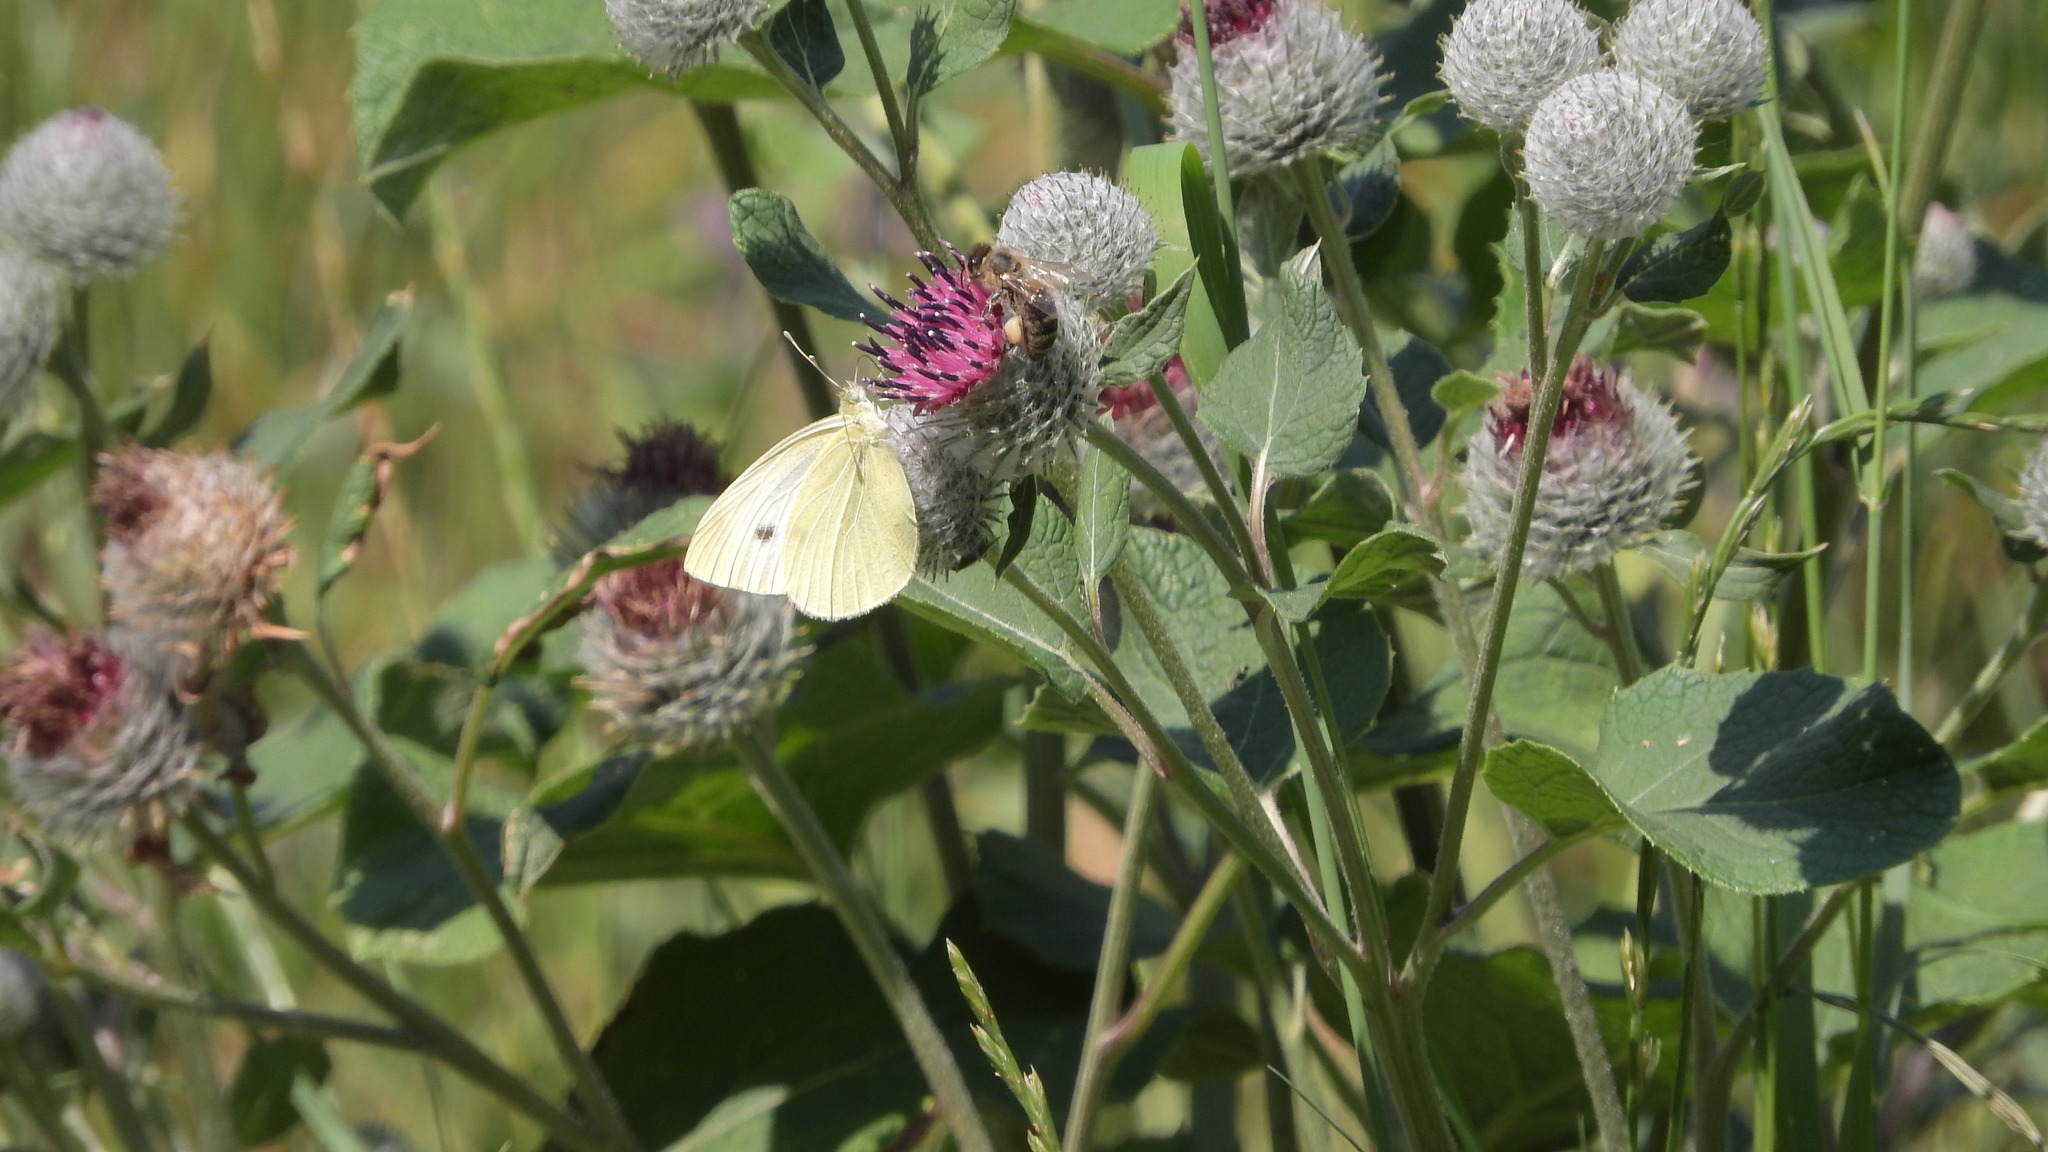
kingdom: Animalia
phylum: Arthropoda
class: Insecta
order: Lepidoptera
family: Pieridae
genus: Pieris
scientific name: Pieris rapae
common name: Small white
